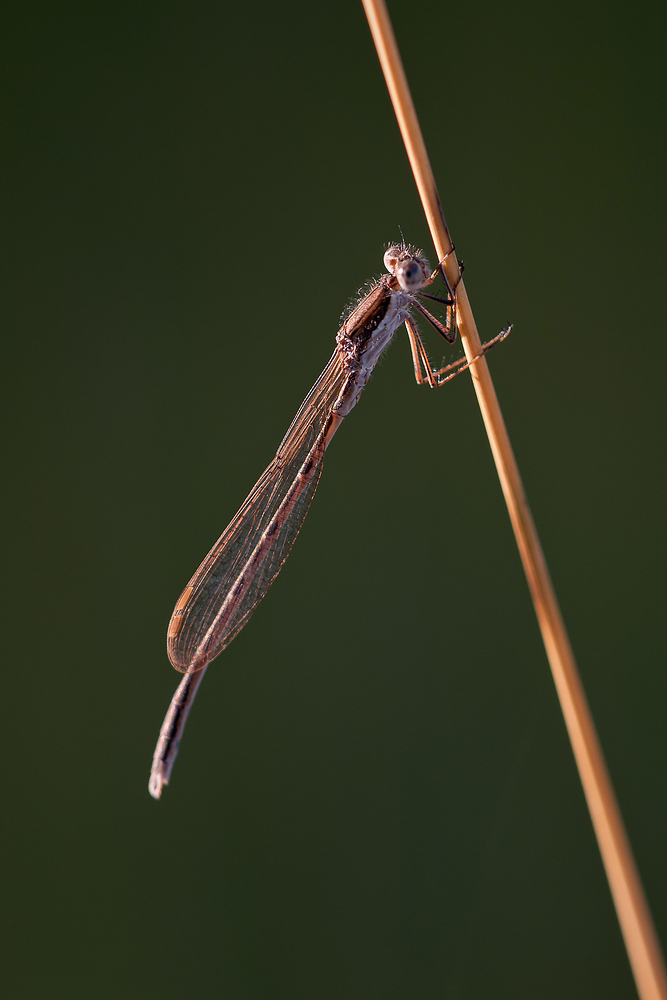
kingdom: Animalia
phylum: Arthropoda
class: Insecta
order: Odonata
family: Lestidae
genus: Sympecma
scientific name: Sympecma fusca
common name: Common winter damsel
